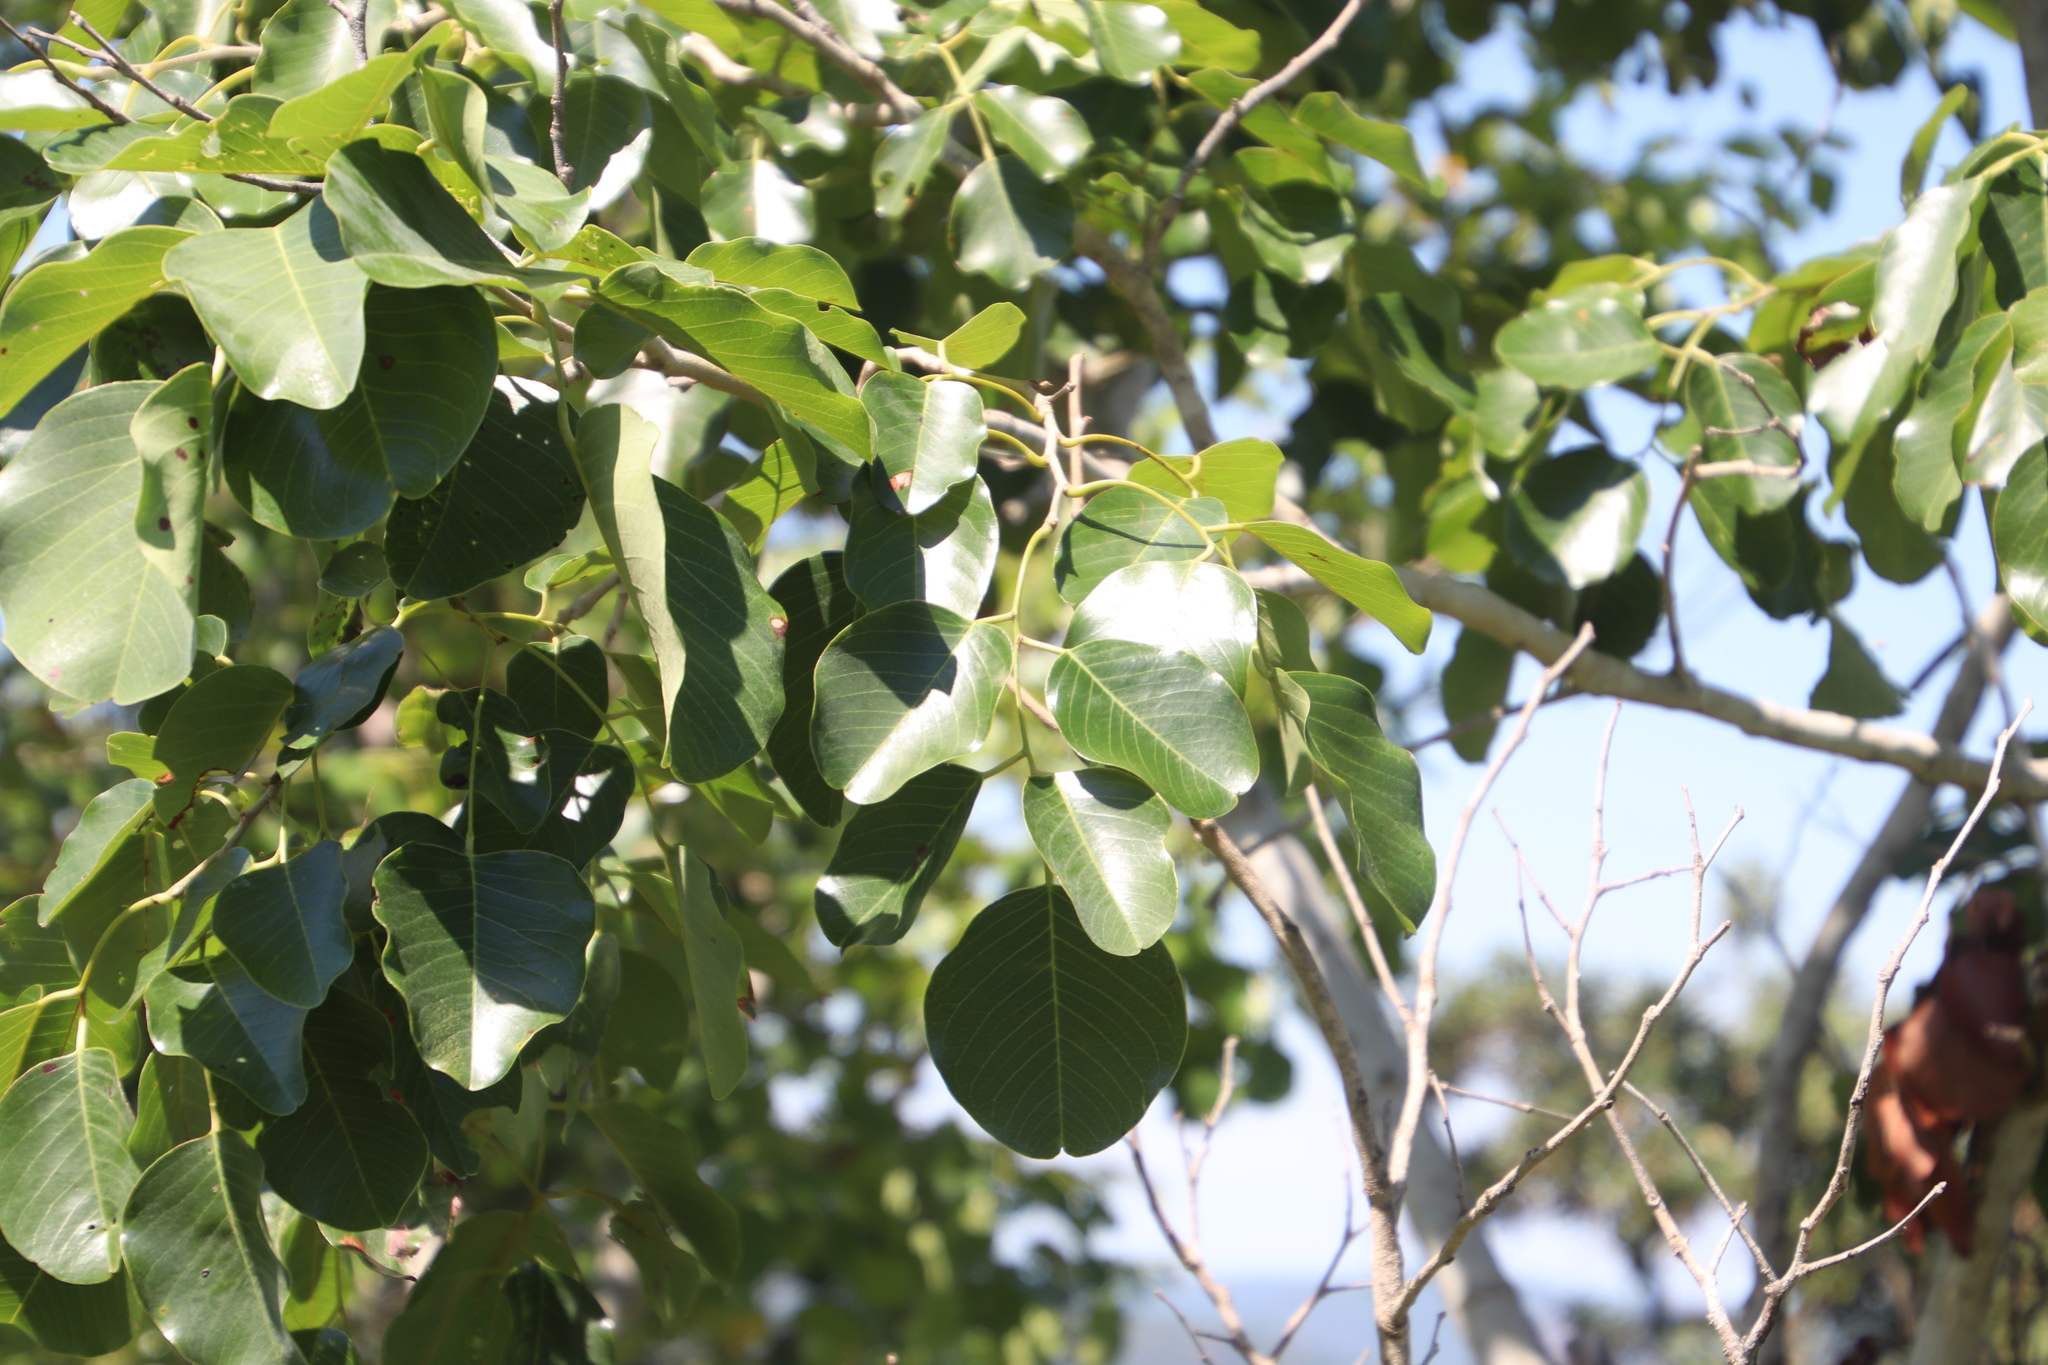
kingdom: Plantae
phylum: Tracheophyta
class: Magnoliopsida
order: Fabales
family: Fabaceae
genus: Pterocarpus
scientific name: Pterocarpus rotundifolius
